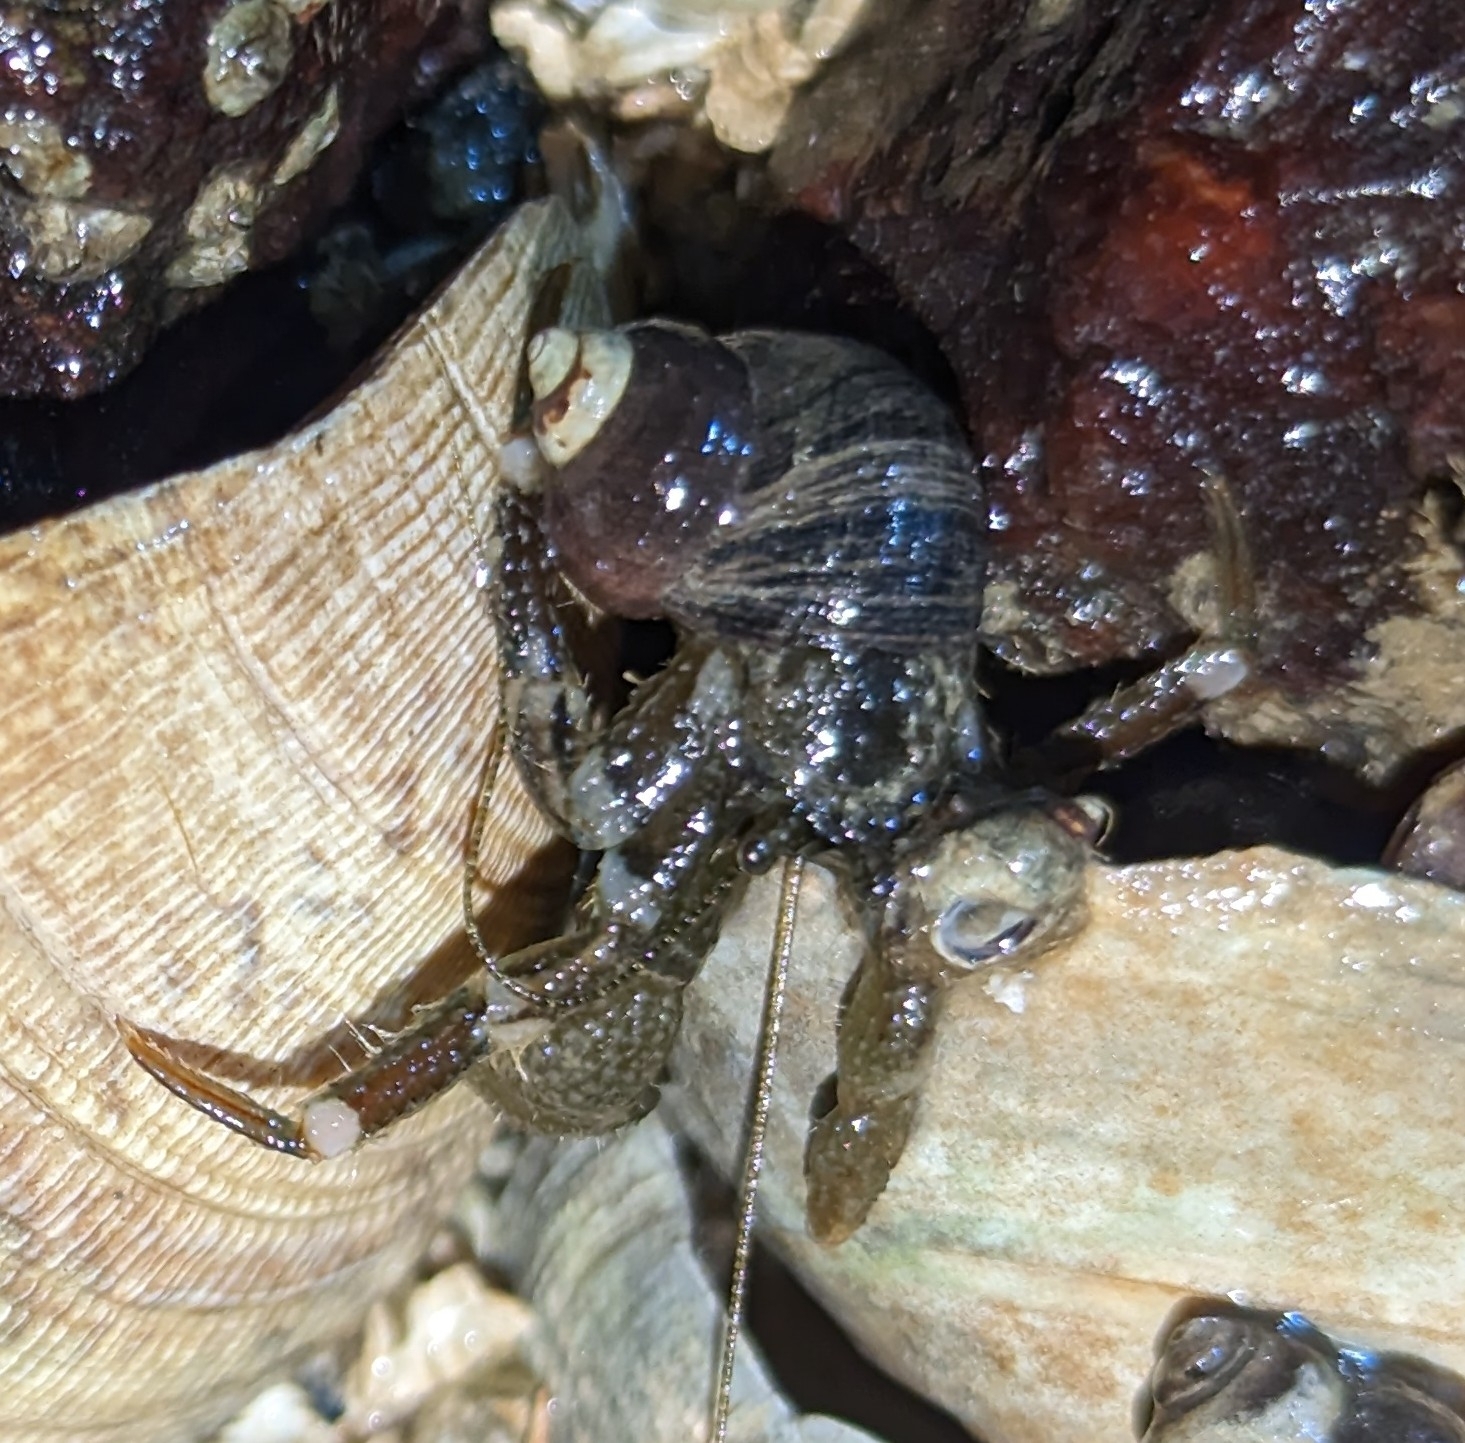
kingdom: Animalia
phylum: Arthropoda
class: Malacostraca
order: Decapoda
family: Paguridae
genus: Pagurus
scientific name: Pagurus hirsutiusculus
